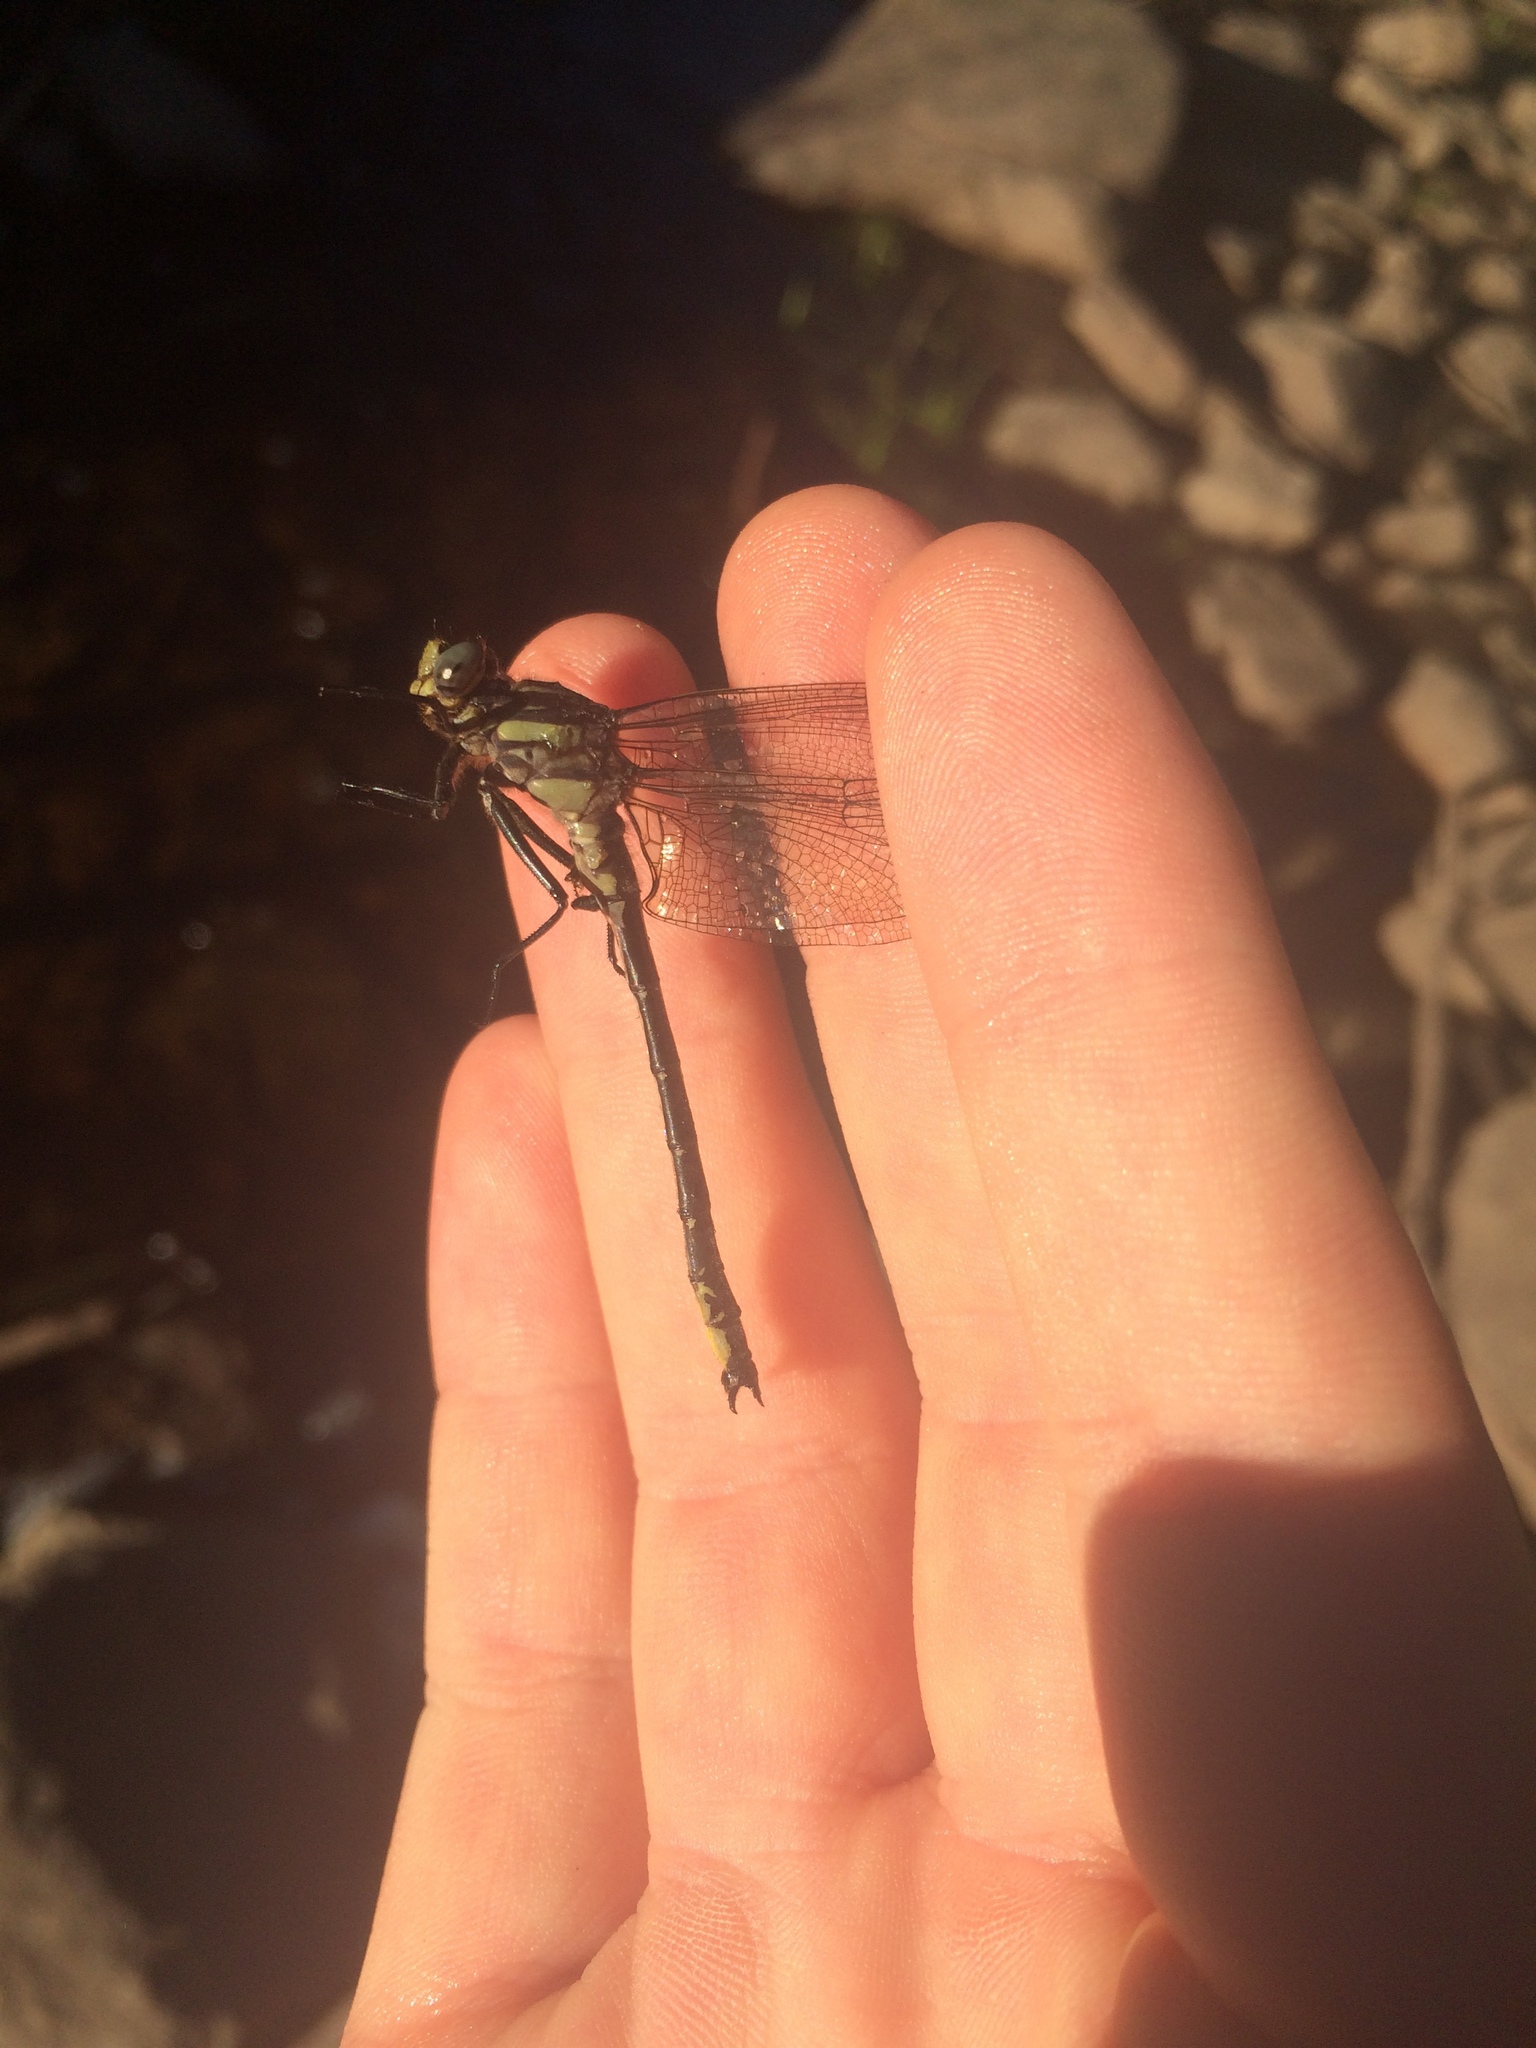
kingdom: Animalia
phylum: Arthropoda
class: Insecta
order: Odonata
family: Gomphidae
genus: Phanogomphus
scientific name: Phanogomphus descriptus
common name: Harpoon clubtail
